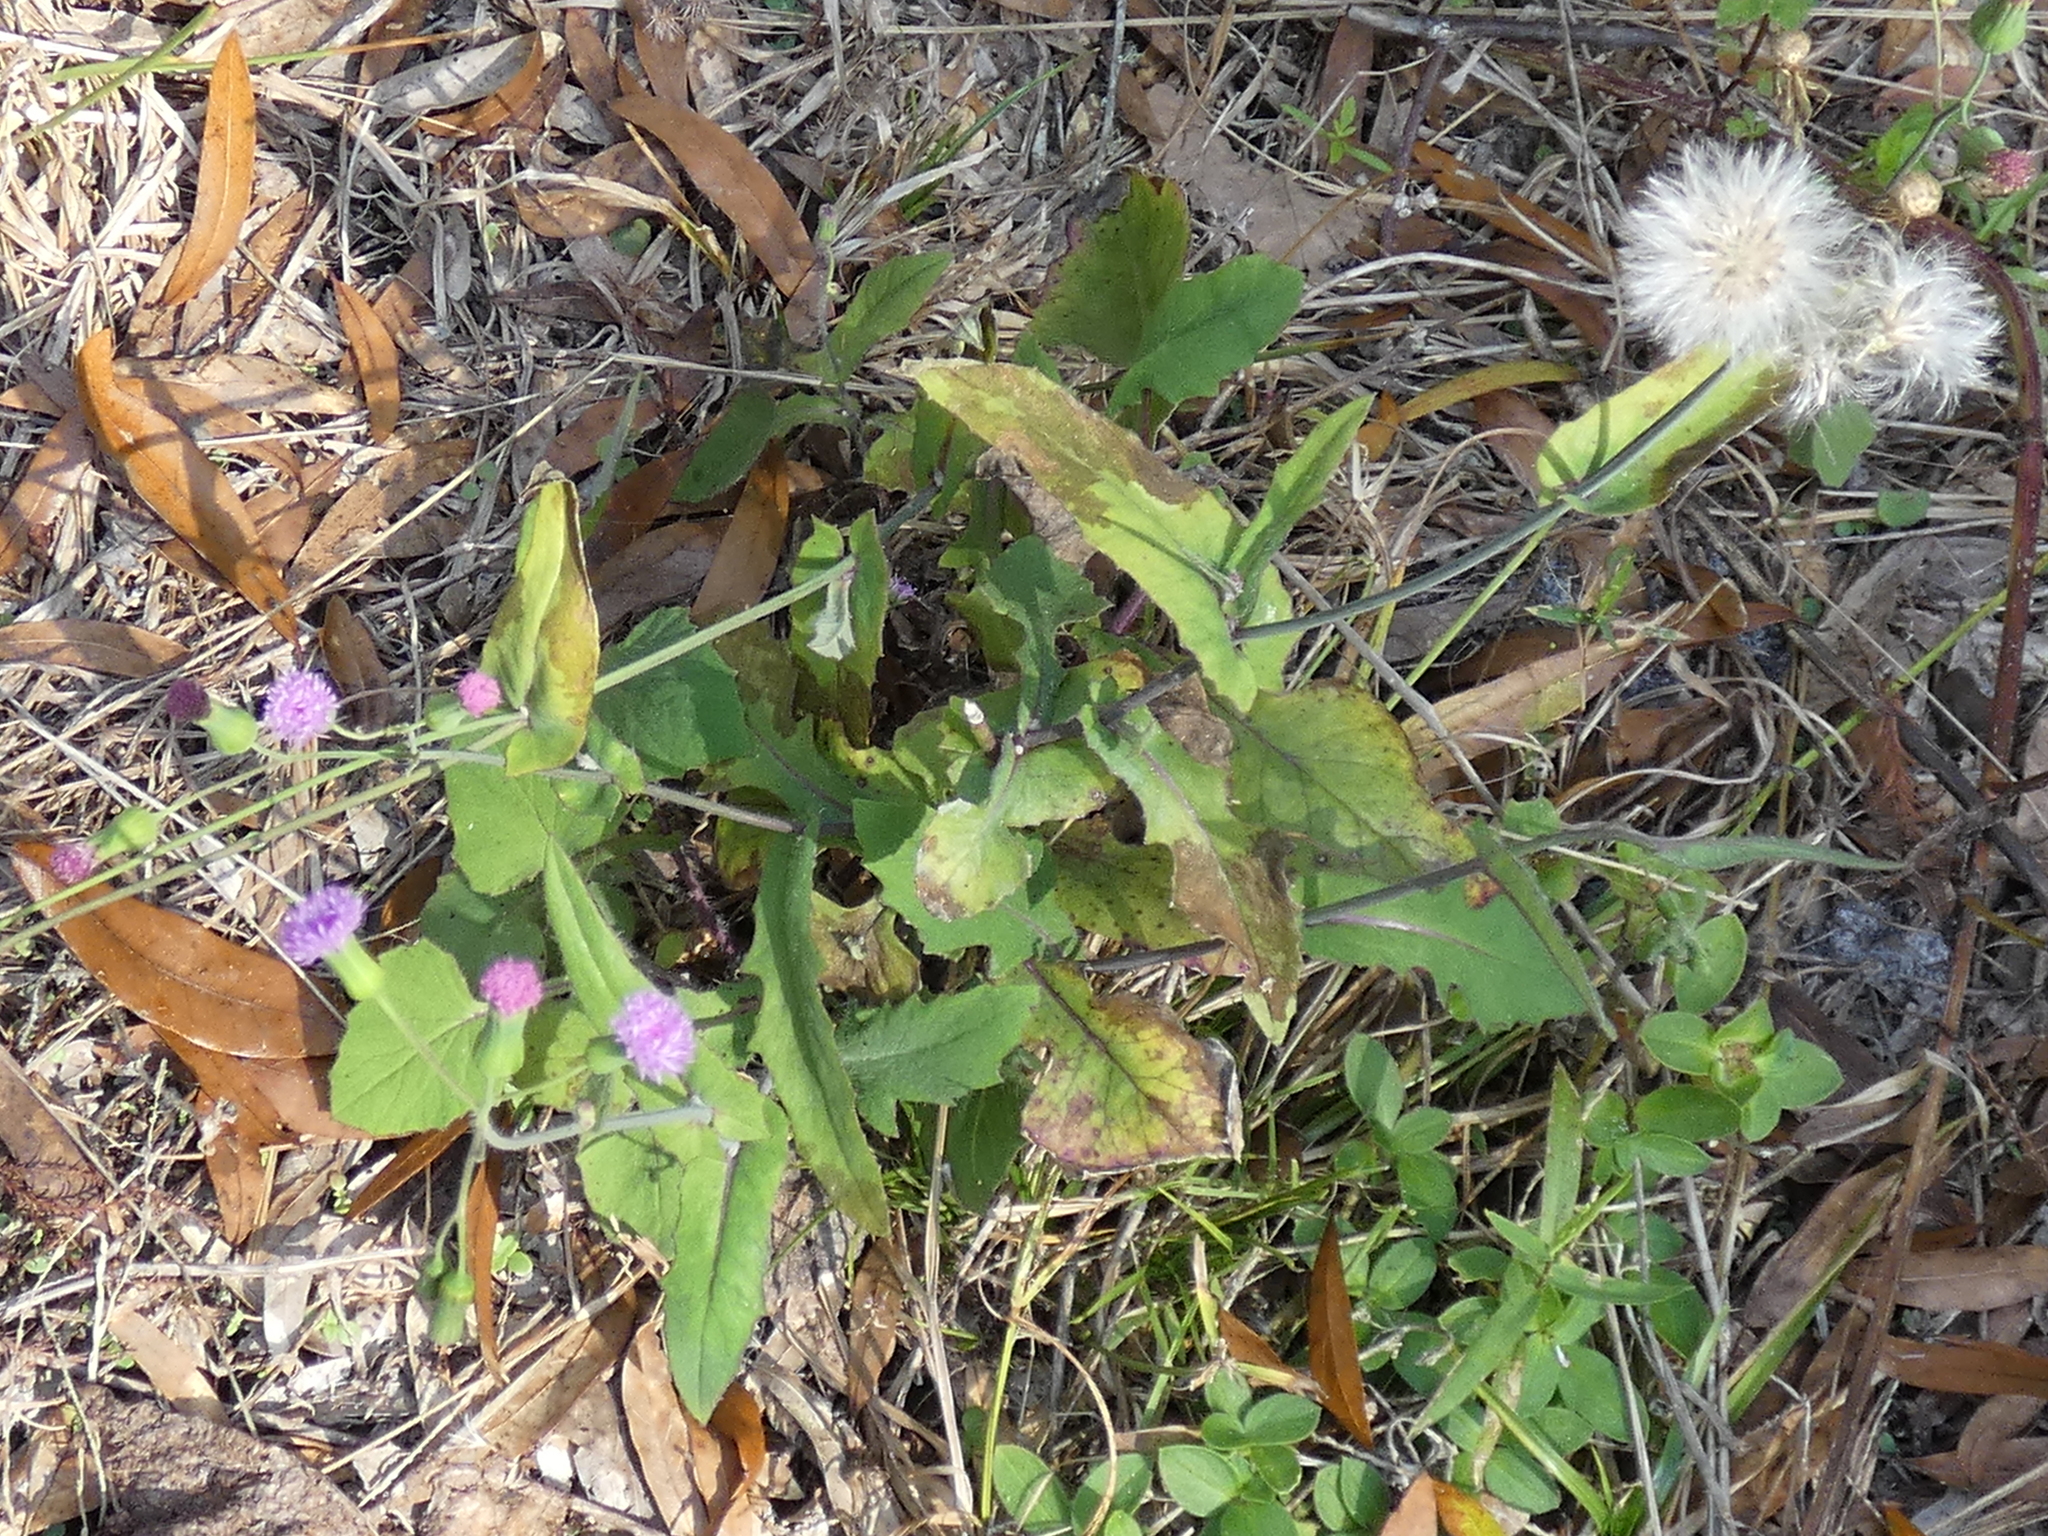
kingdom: Plantae
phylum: Tracheophyta
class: Magnoliopsida
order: Asterales
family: Asteraceae
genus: Emilia
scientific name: Emilia sonchifolia
